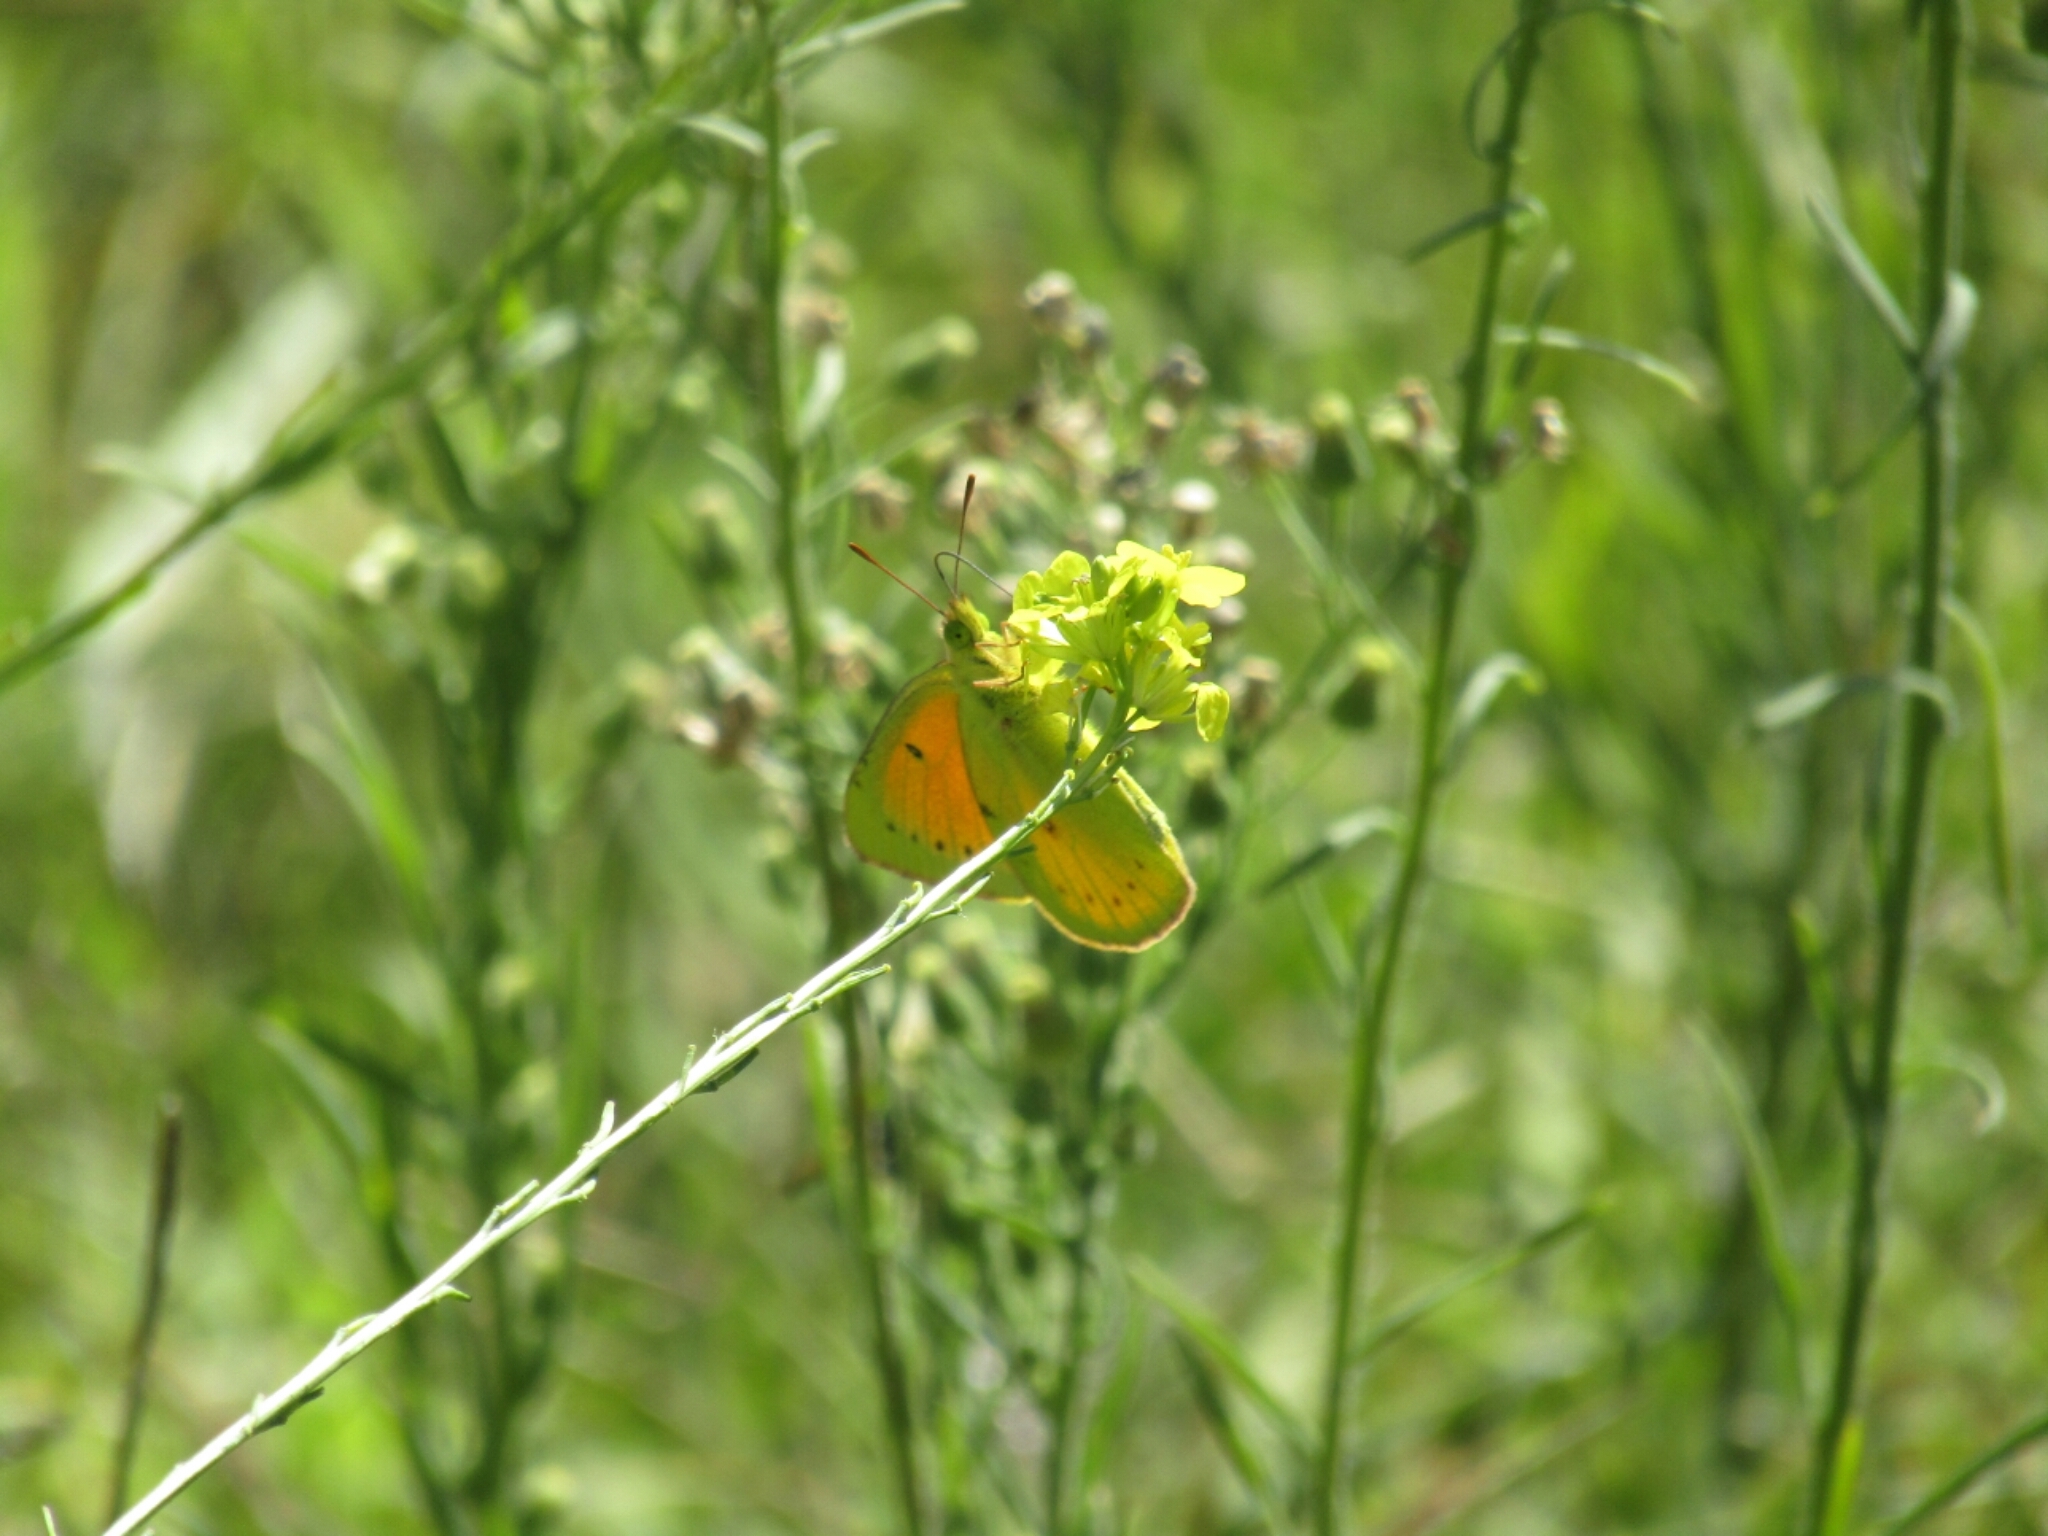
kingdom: Animalia
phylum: Arthropoda
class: Insecta
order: Lepidoptera
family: Pieridae
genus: Colias
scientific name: Colias lesbia
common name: Lesbia clouded yellow
